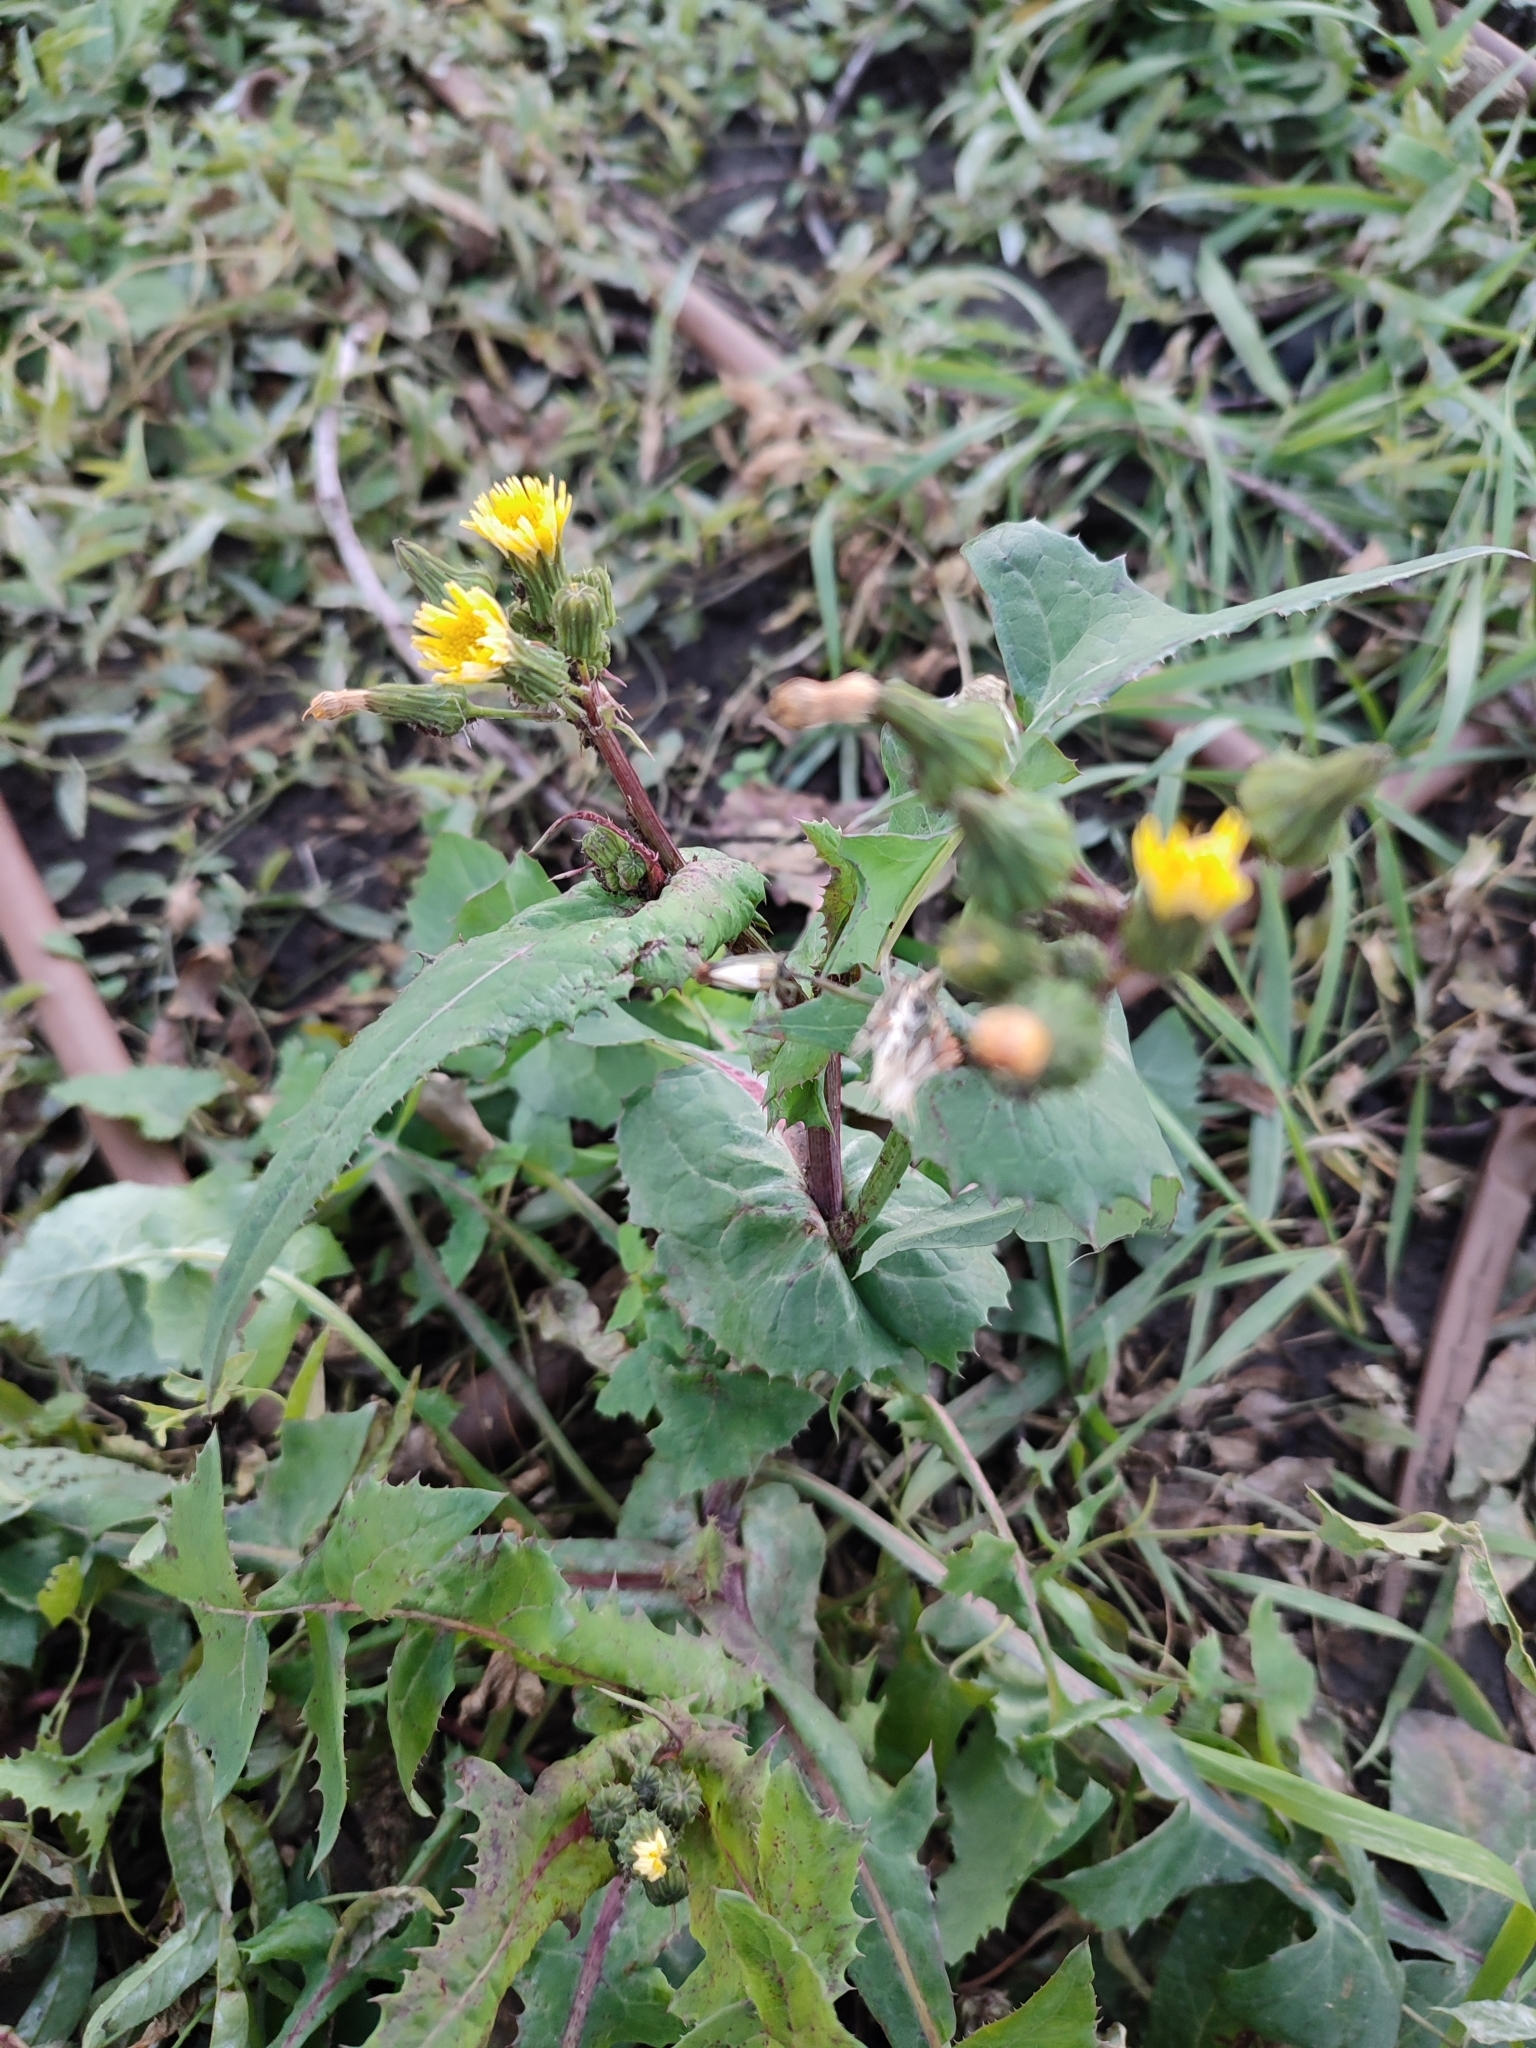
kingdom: Plantae
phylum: Tracheophyta
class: Magnoliopsida
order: Asterales
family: Asteraceae
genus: Sonchus
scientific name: Sonchus oleraceus
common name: Common sowthistle
